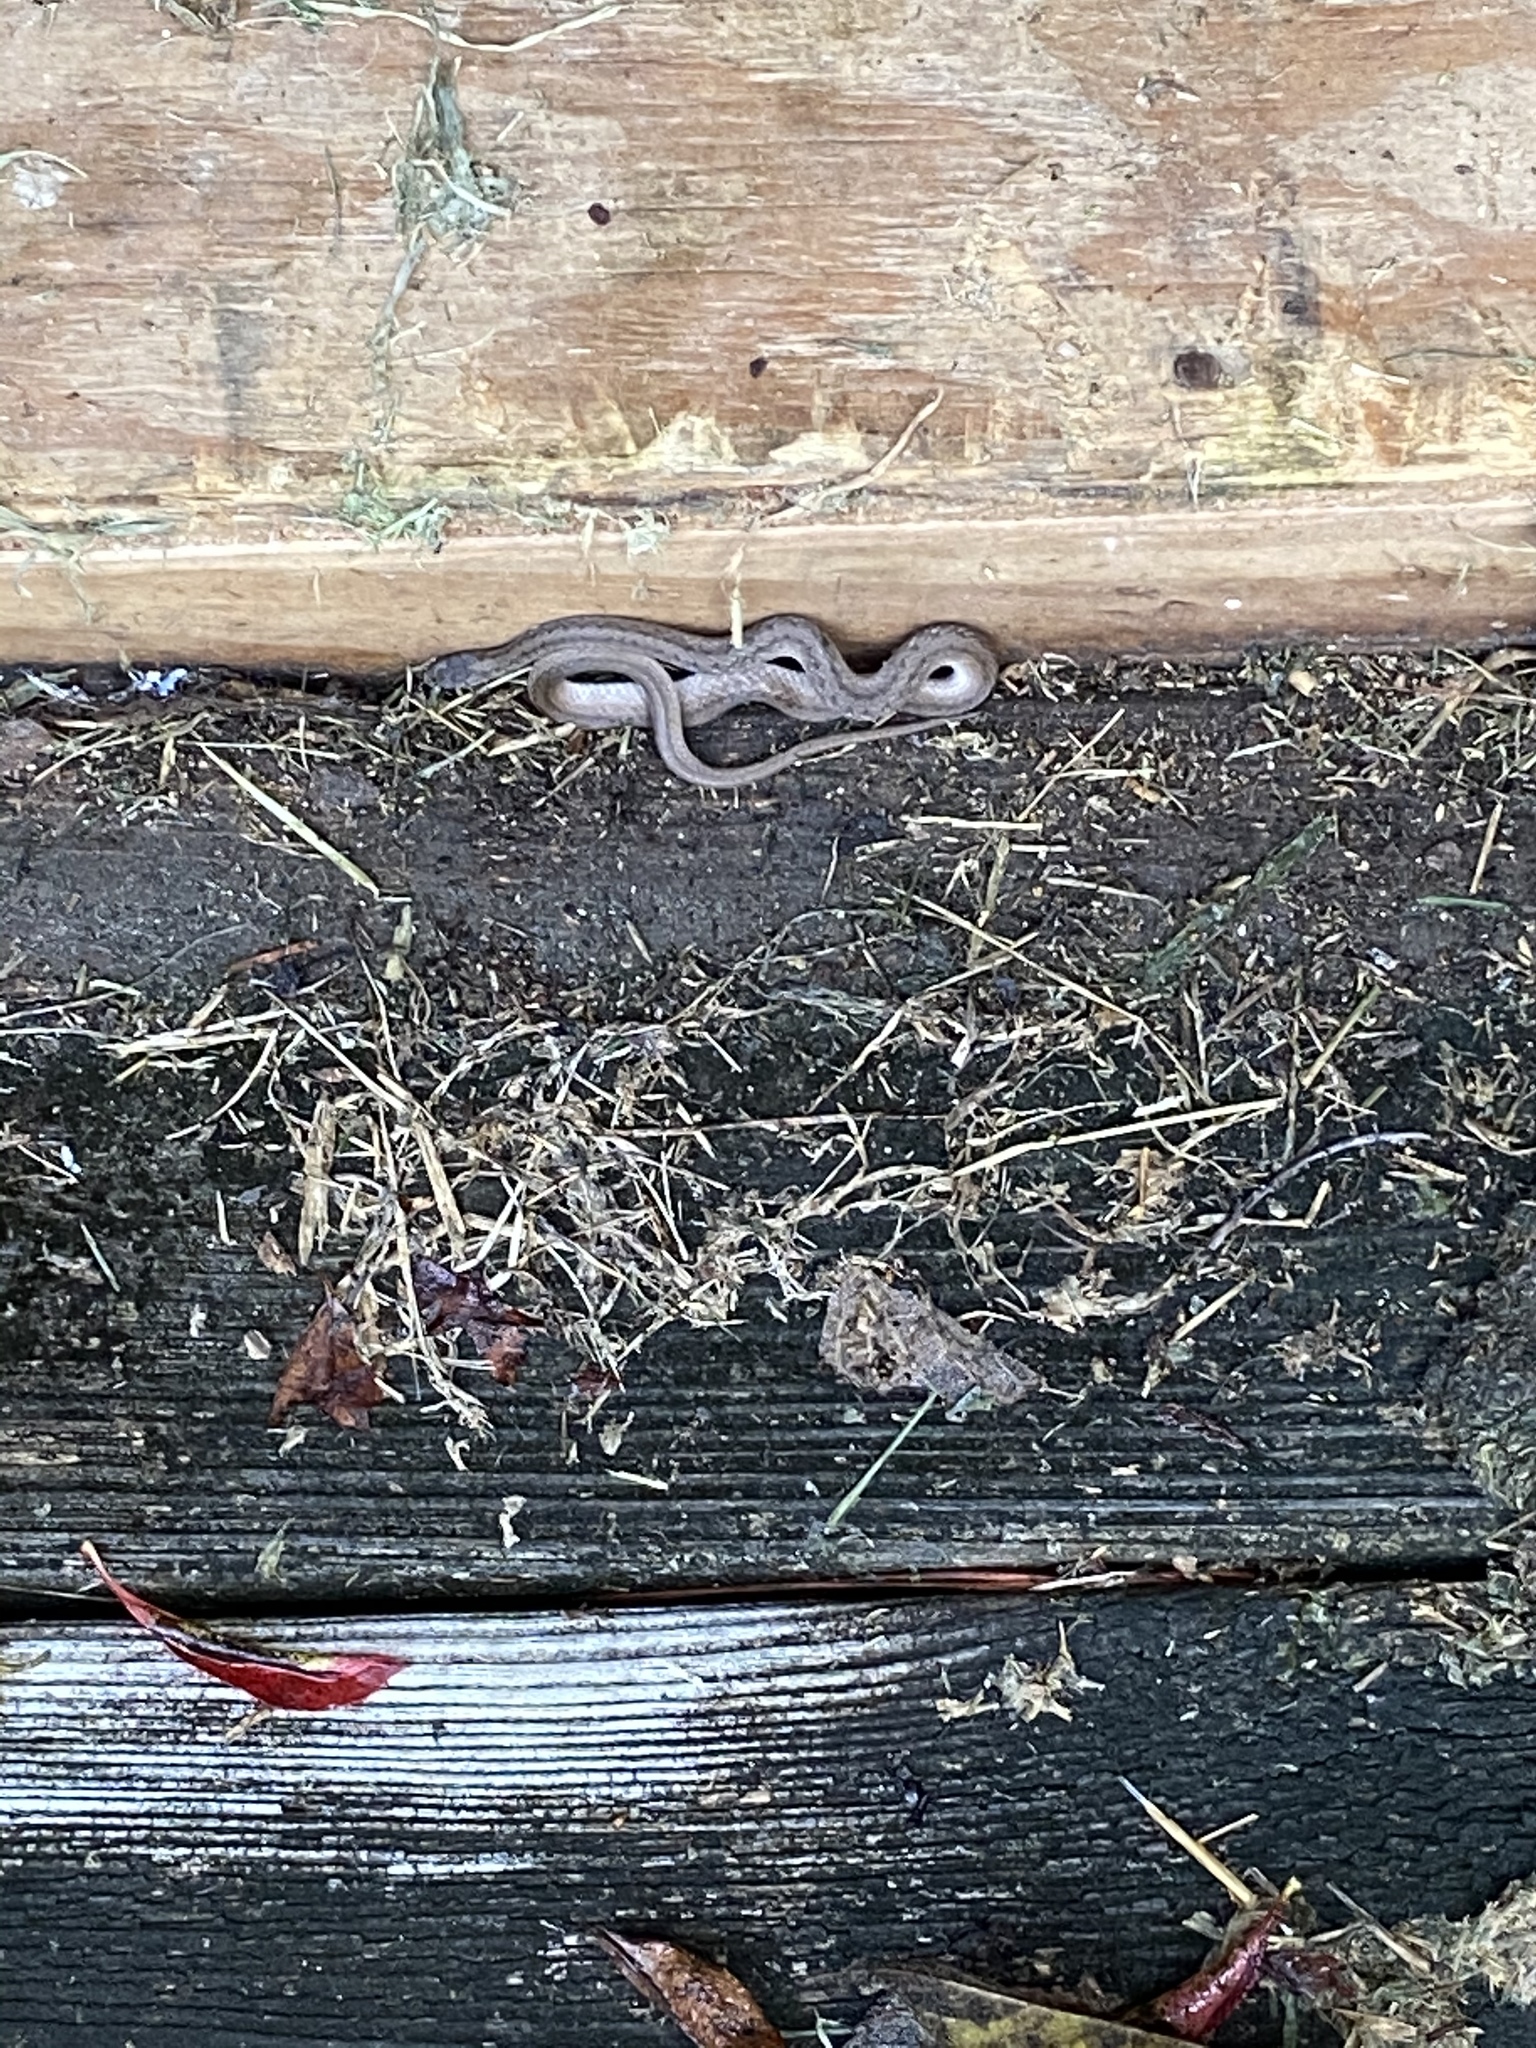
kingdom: Animalia
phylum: Chordata
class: Squamata
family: Colubridae
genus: Storeria
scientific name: Storeria dekayi
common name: (dekay’s) brown snake
